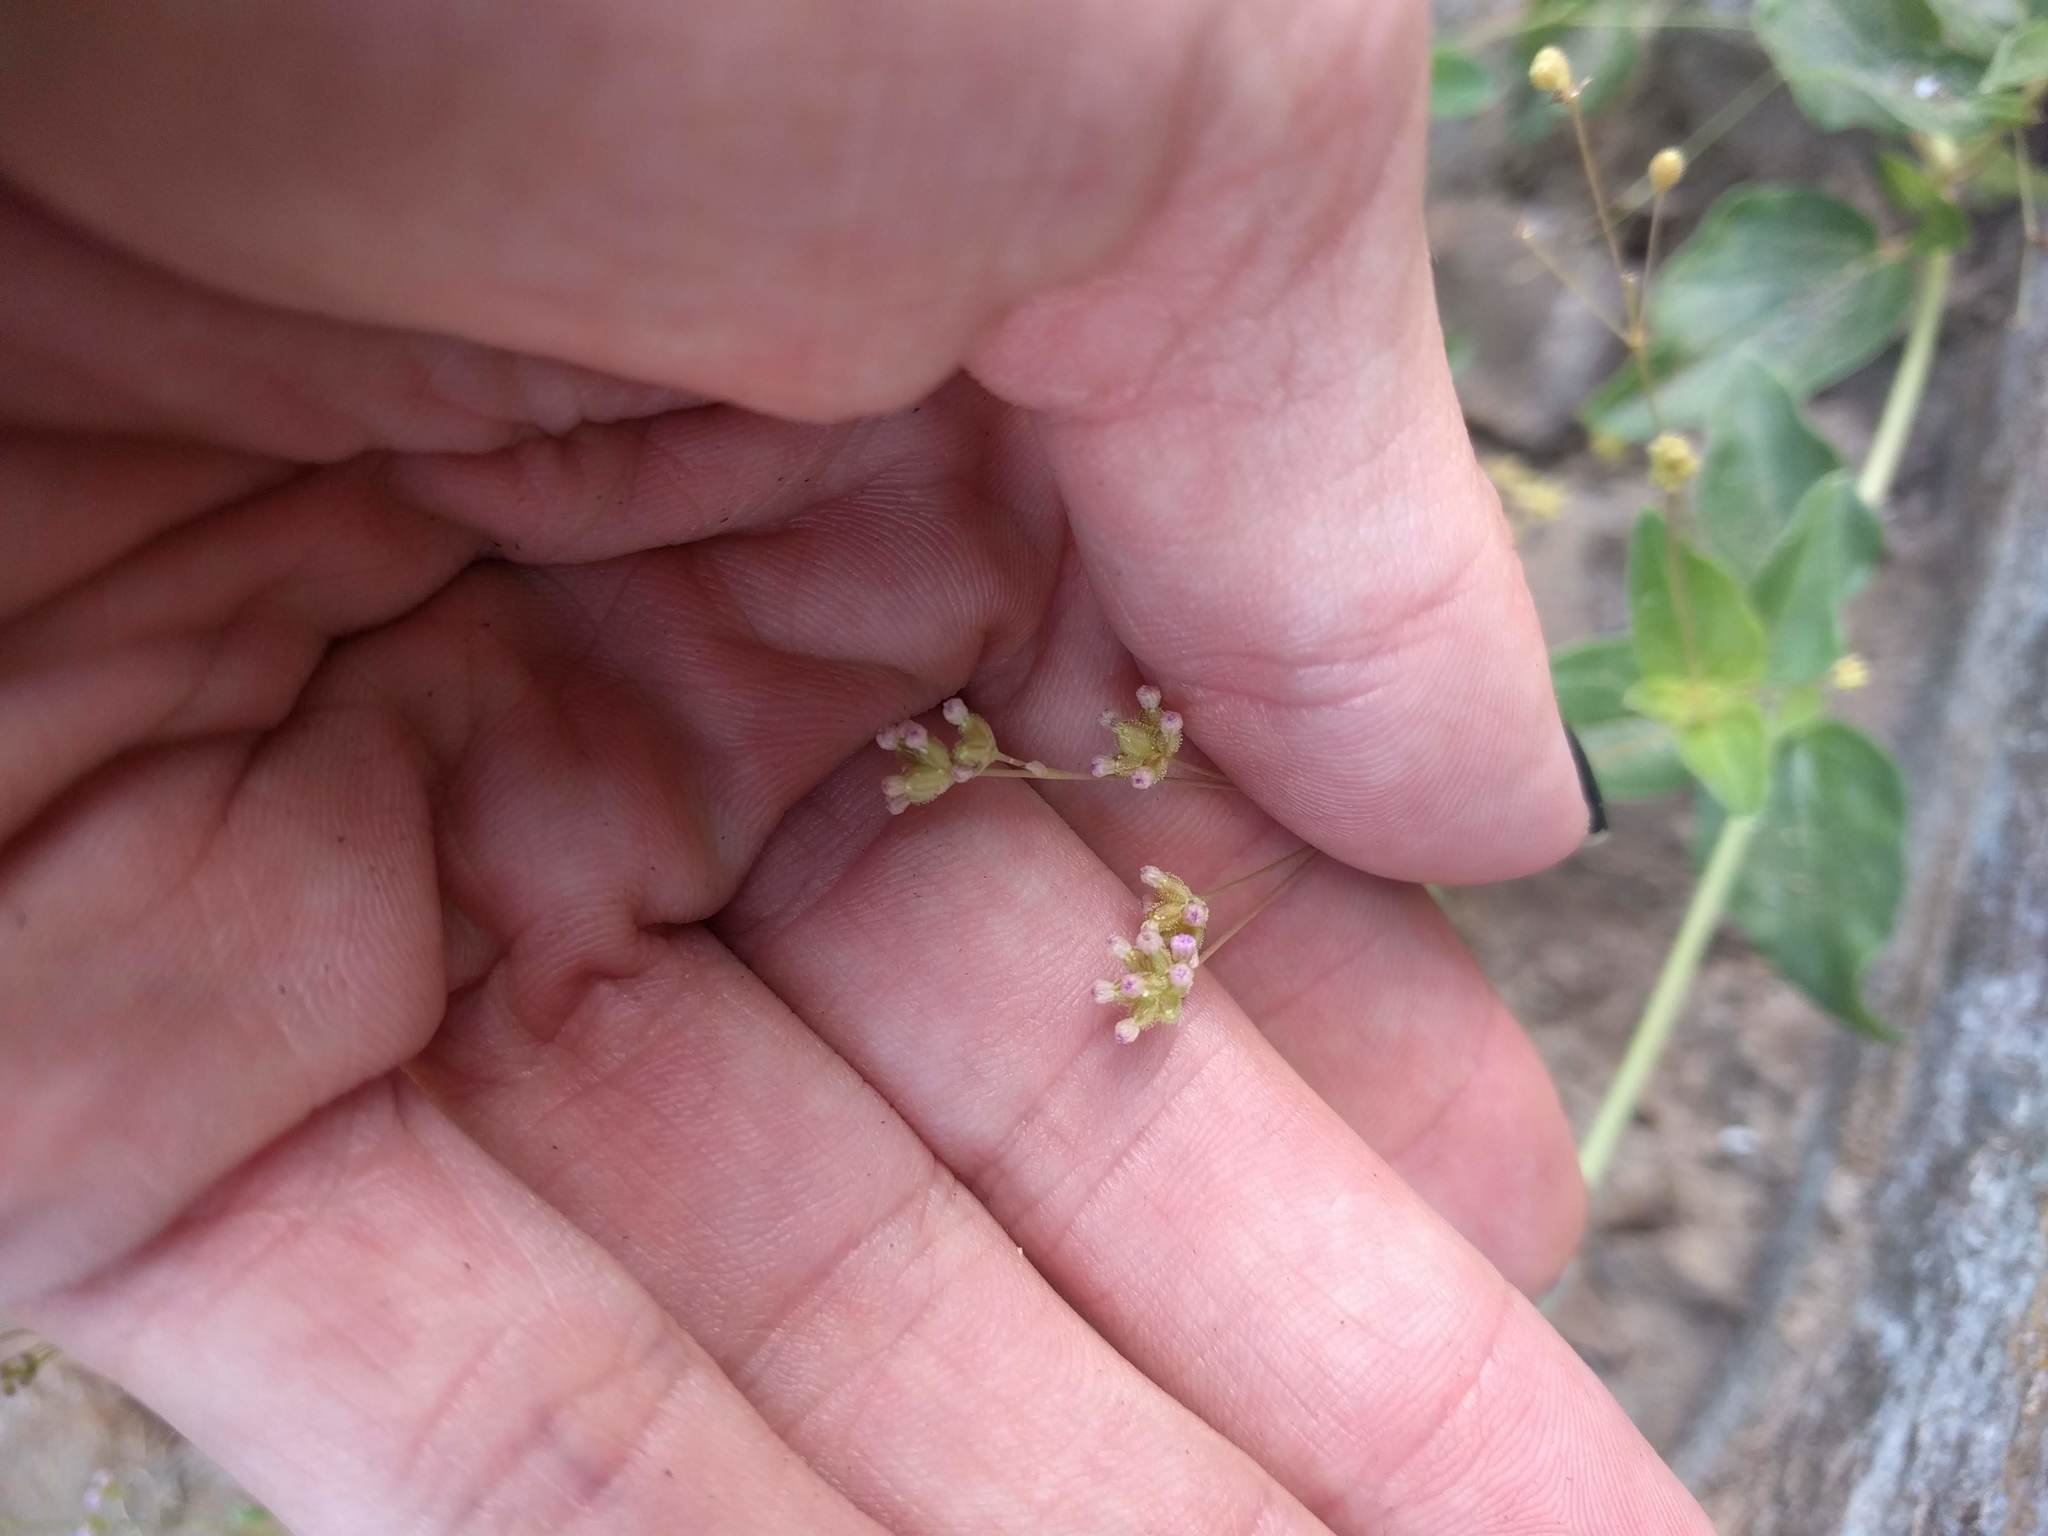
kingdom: Plantae
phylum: Tracheophyta
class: Magnoliopsida
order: Caryophyllales
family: Nyctaginaceae
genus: Boerhavia
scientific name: Boerhavia glabrata
